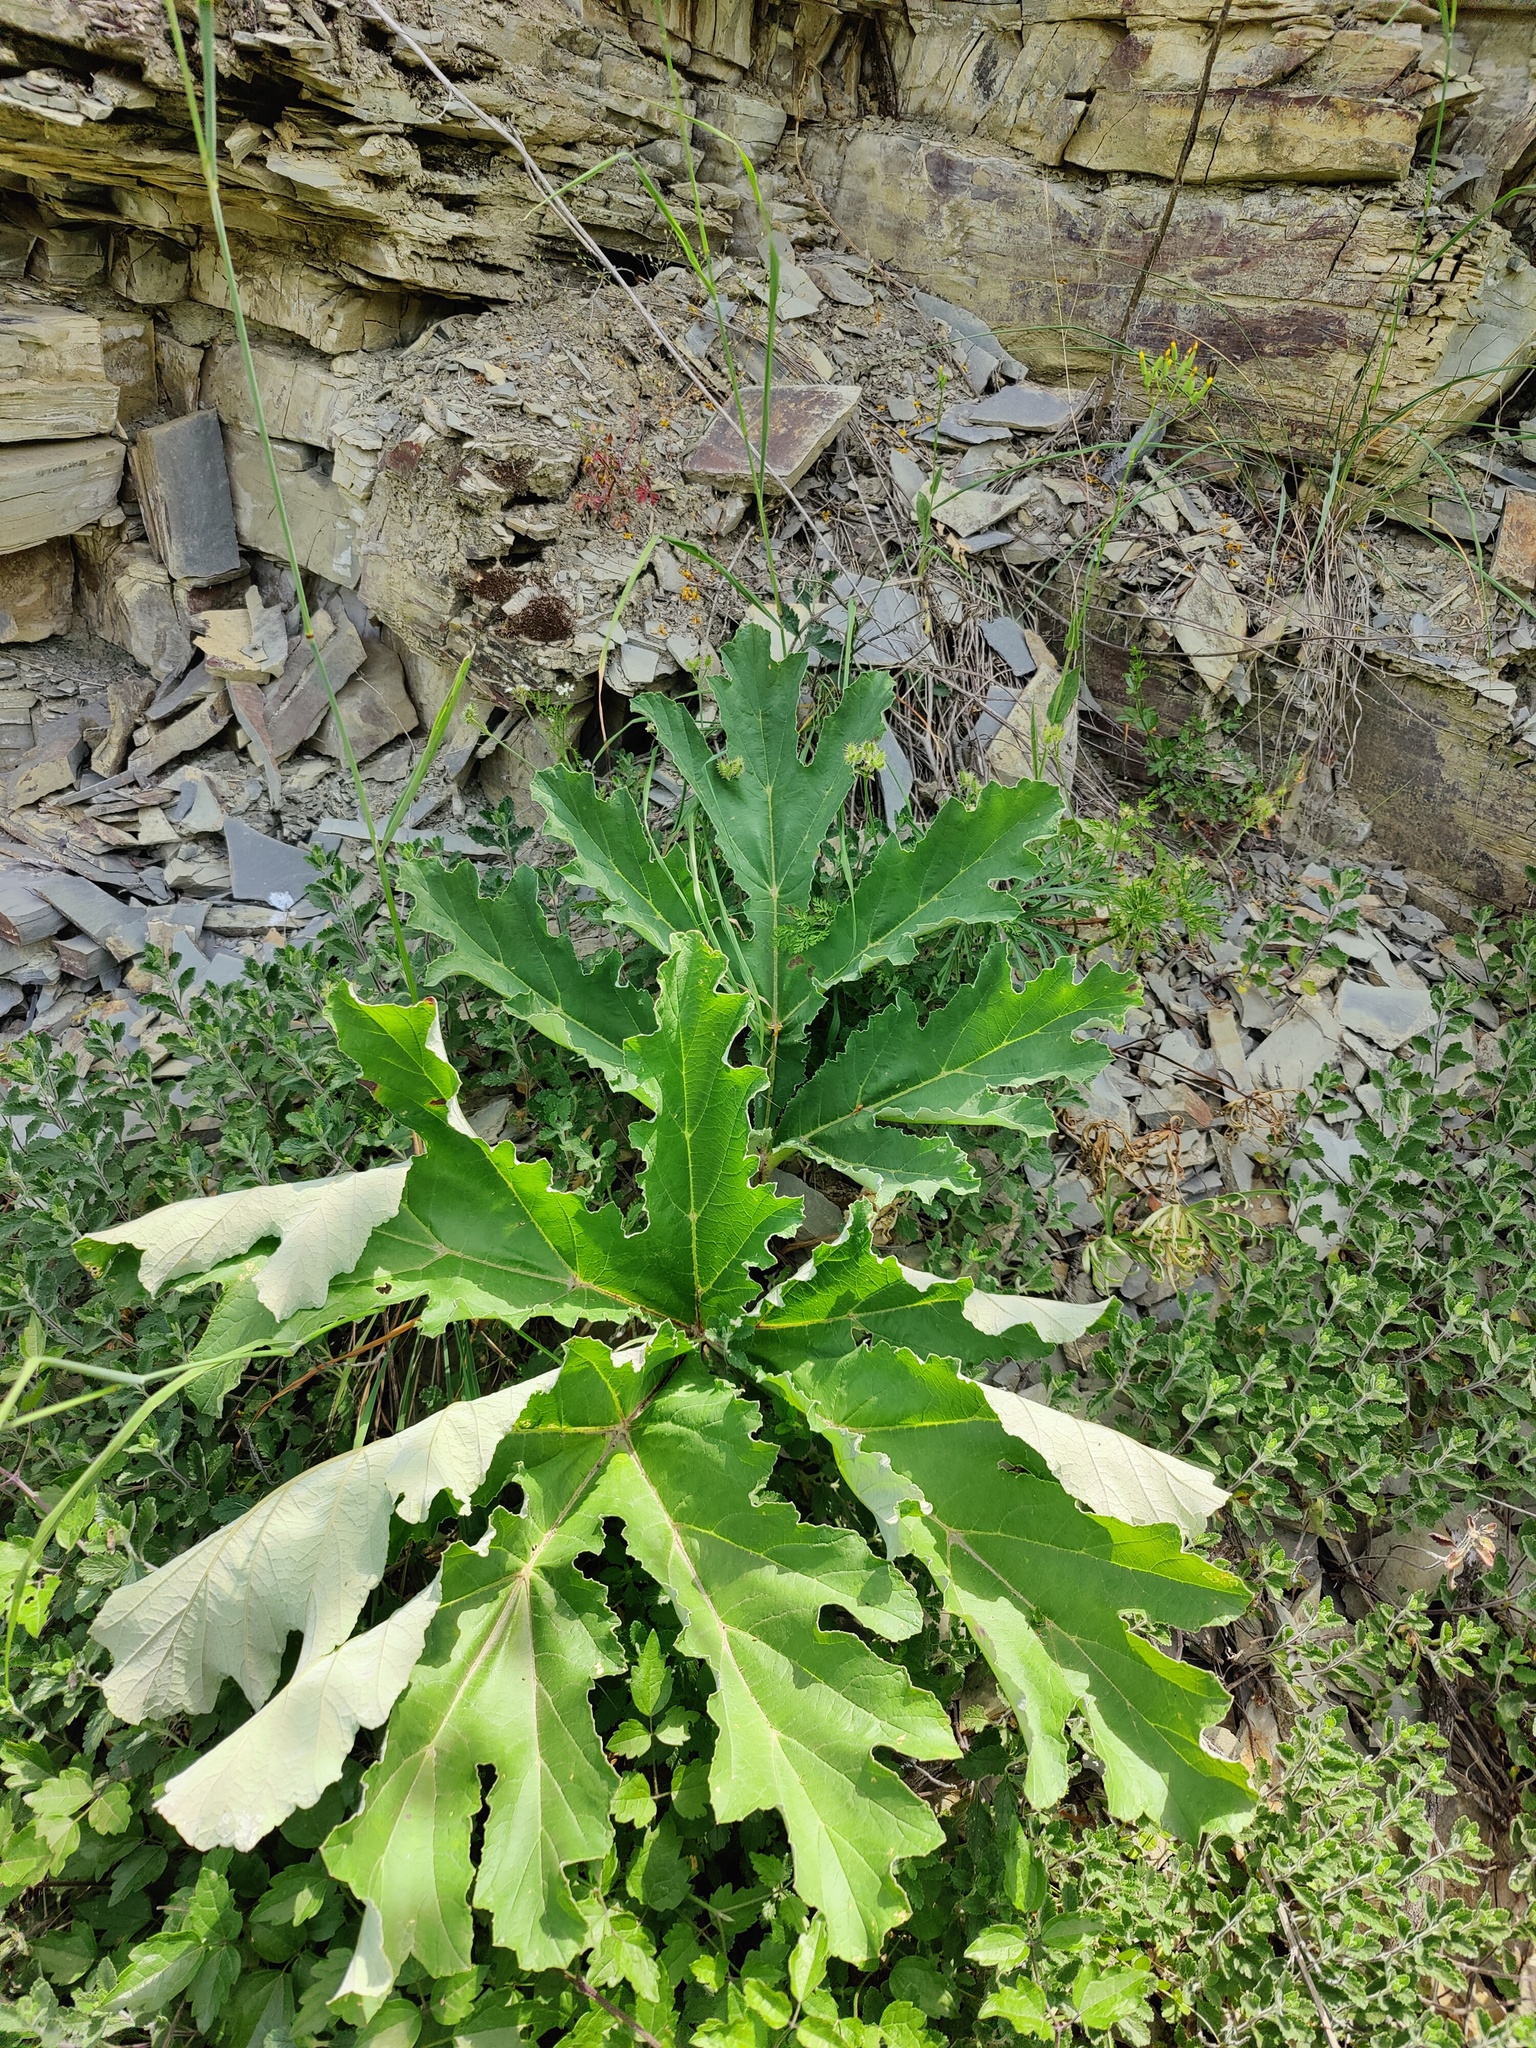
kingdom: Plantae
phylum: Tracheophyta
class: Magnoliopsida
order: Apiales
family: Apiaceae
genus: Heracleum
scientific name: Heracleum stevenii
